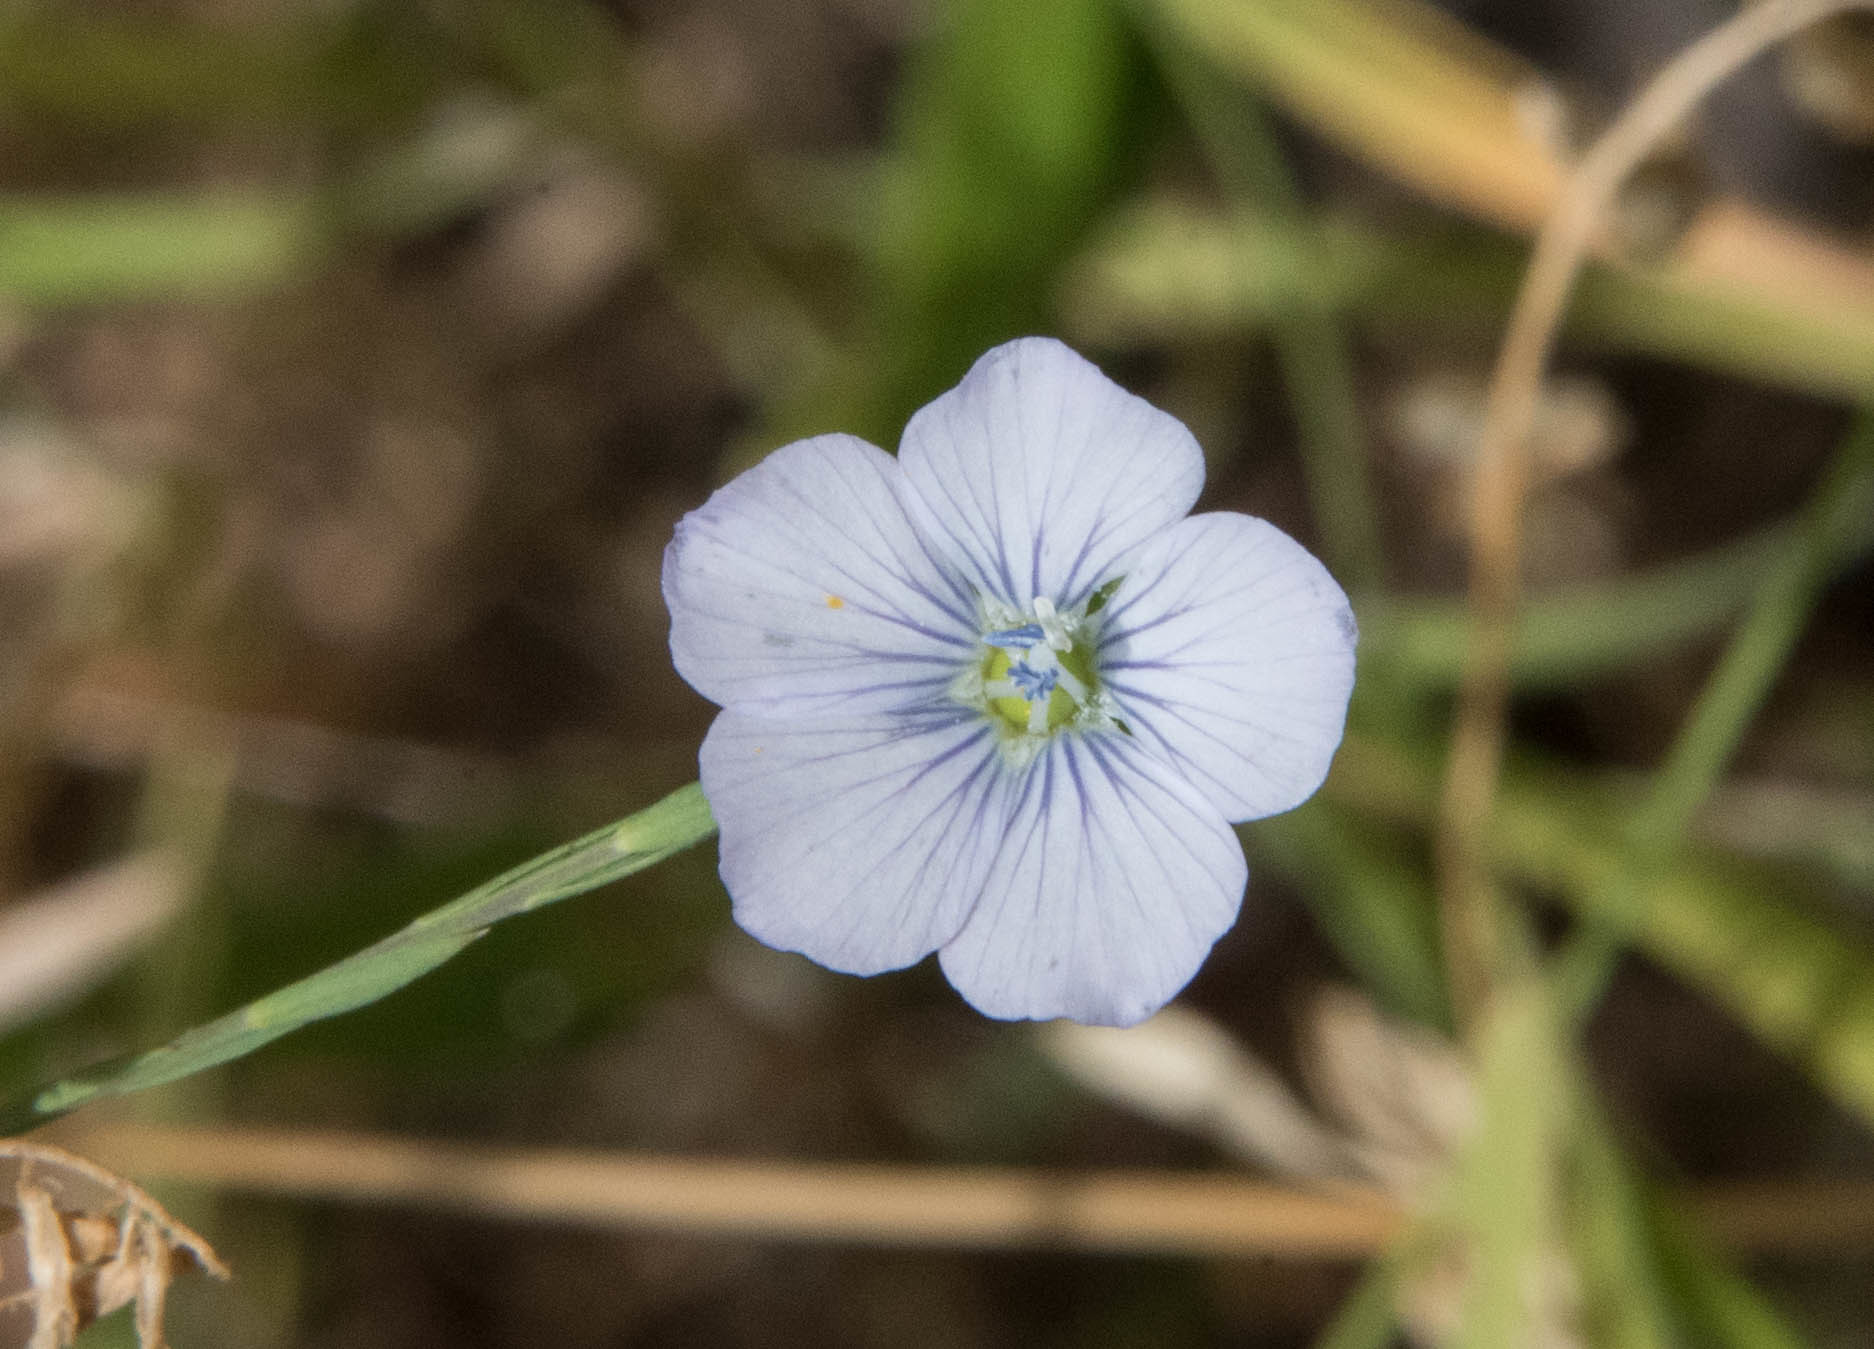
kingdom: Plantae
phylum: Tracheophyta
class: Magnoliopsida
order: Malpighiales
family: Linaceae
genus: Linum
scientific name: Linum bienne
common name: Pale flax
